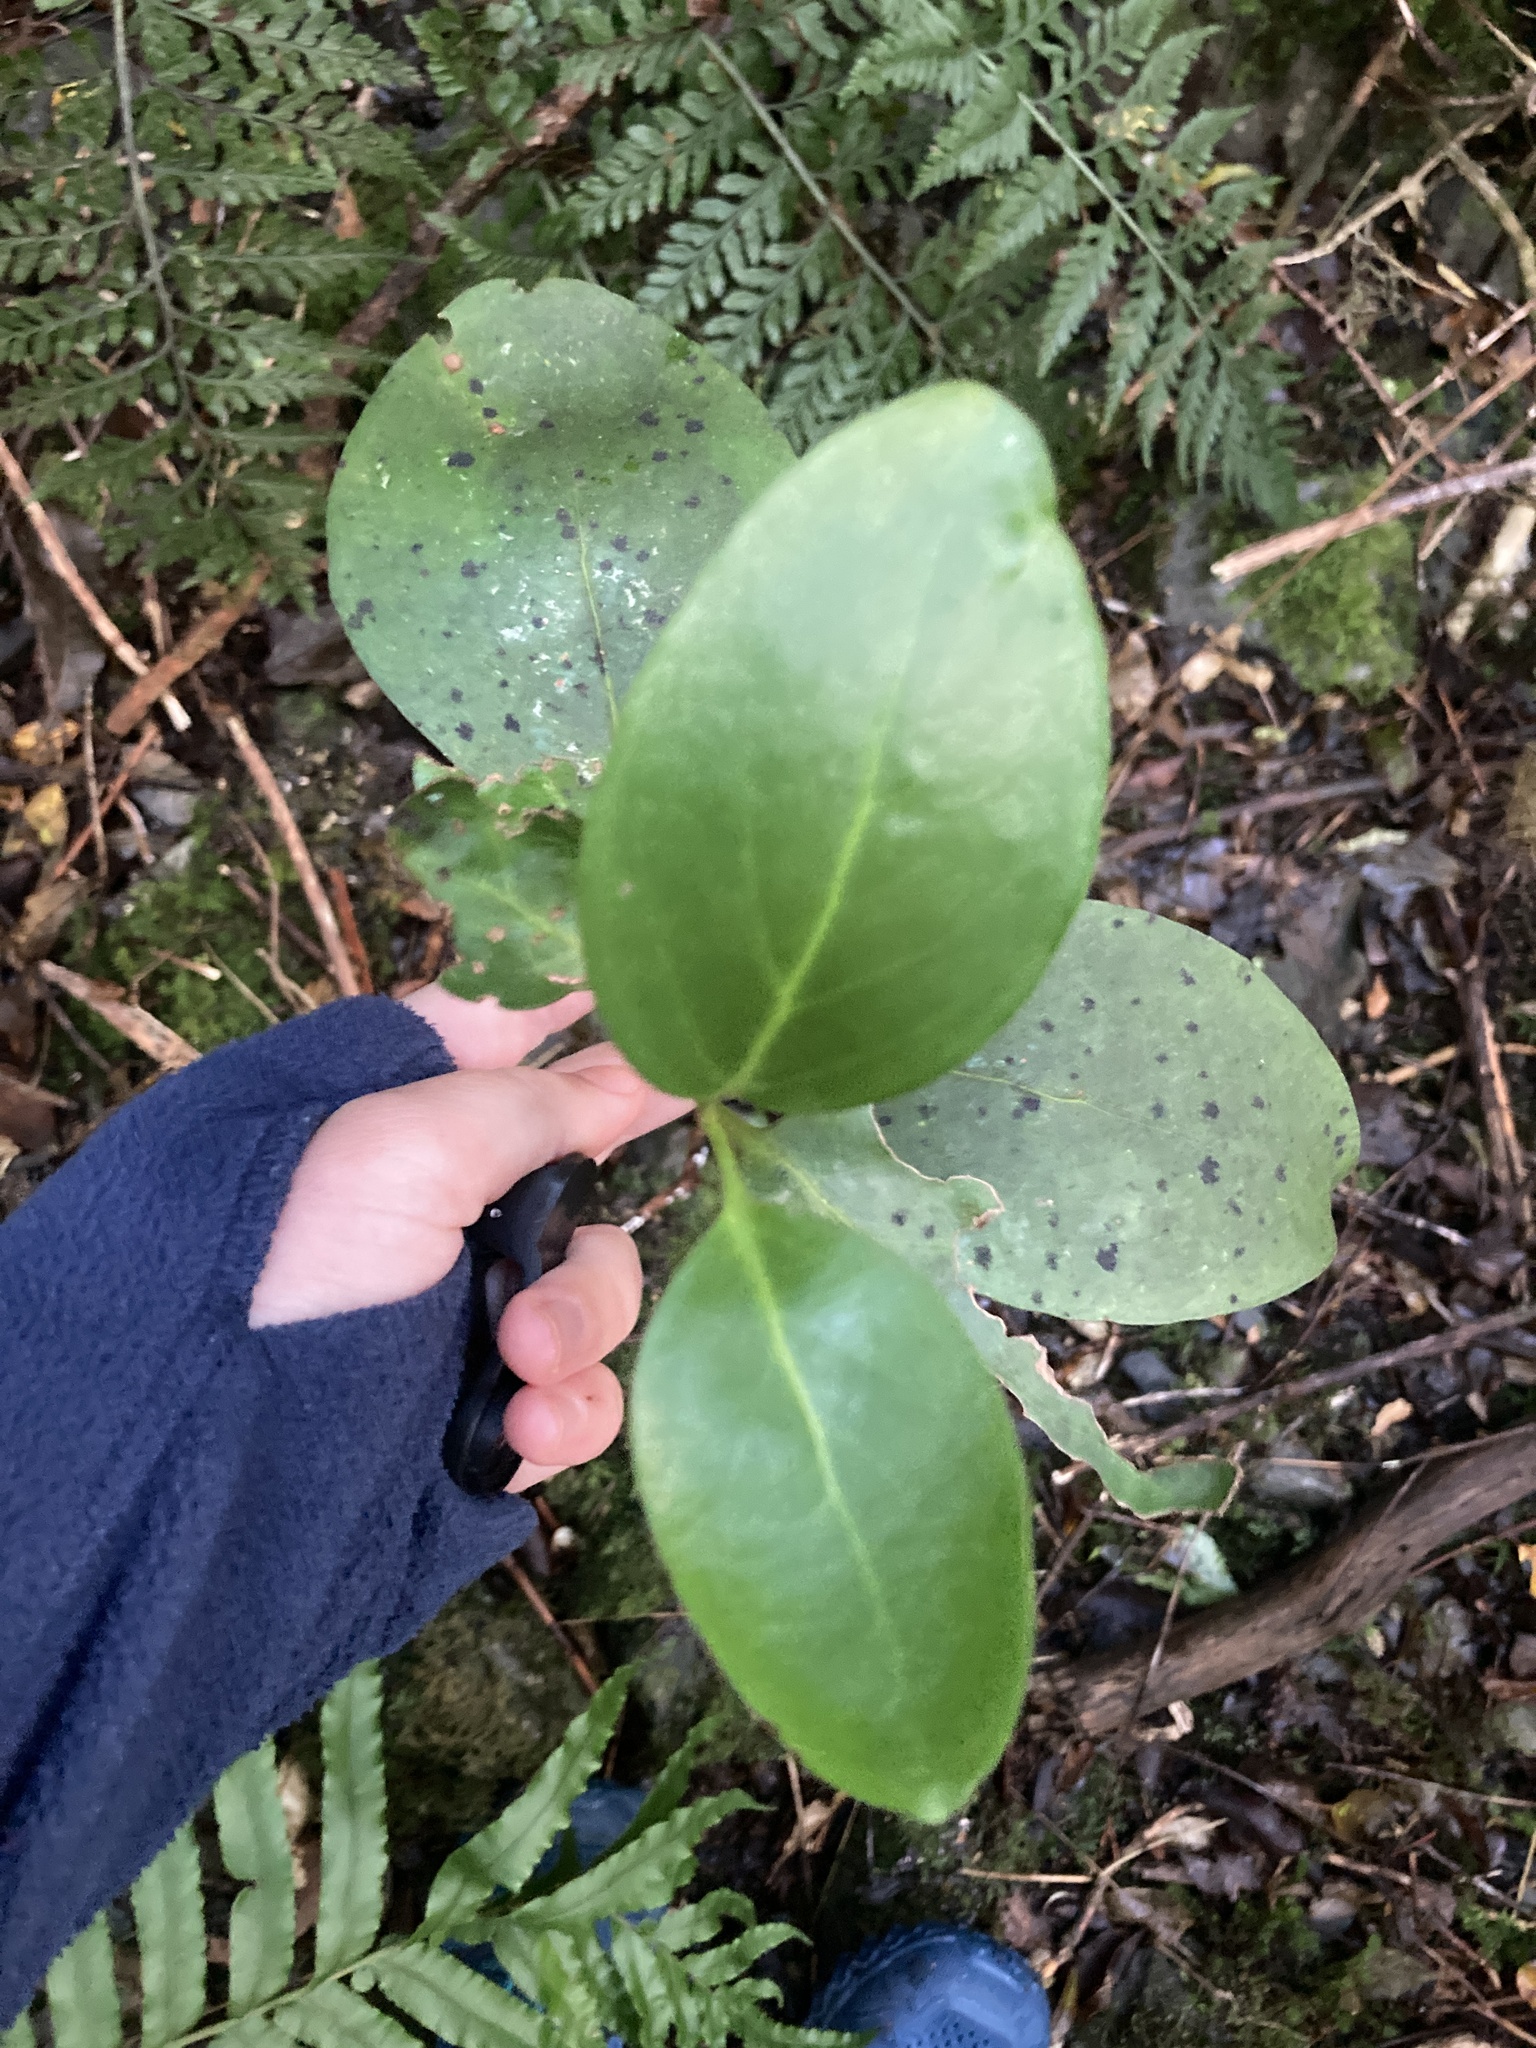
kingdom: Plantae
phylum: Tracheophyta
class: Magnoliopsida
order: Apiales
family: Griseliniaceae
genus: Griselinia
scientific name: Griselinia littoralis
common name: New zealand broadleaf
